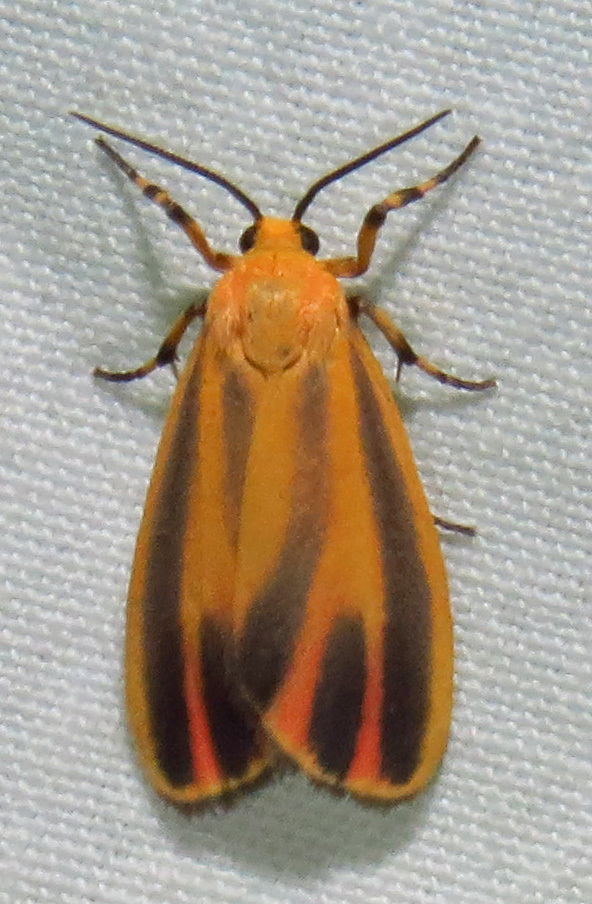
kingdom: Animalia
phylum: Arthropoda
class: Insecta
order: Lepidoptera
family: Erebidae
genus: Hypoprepia
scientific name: Hypoprepia fucosa
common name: Painted lichen moth
